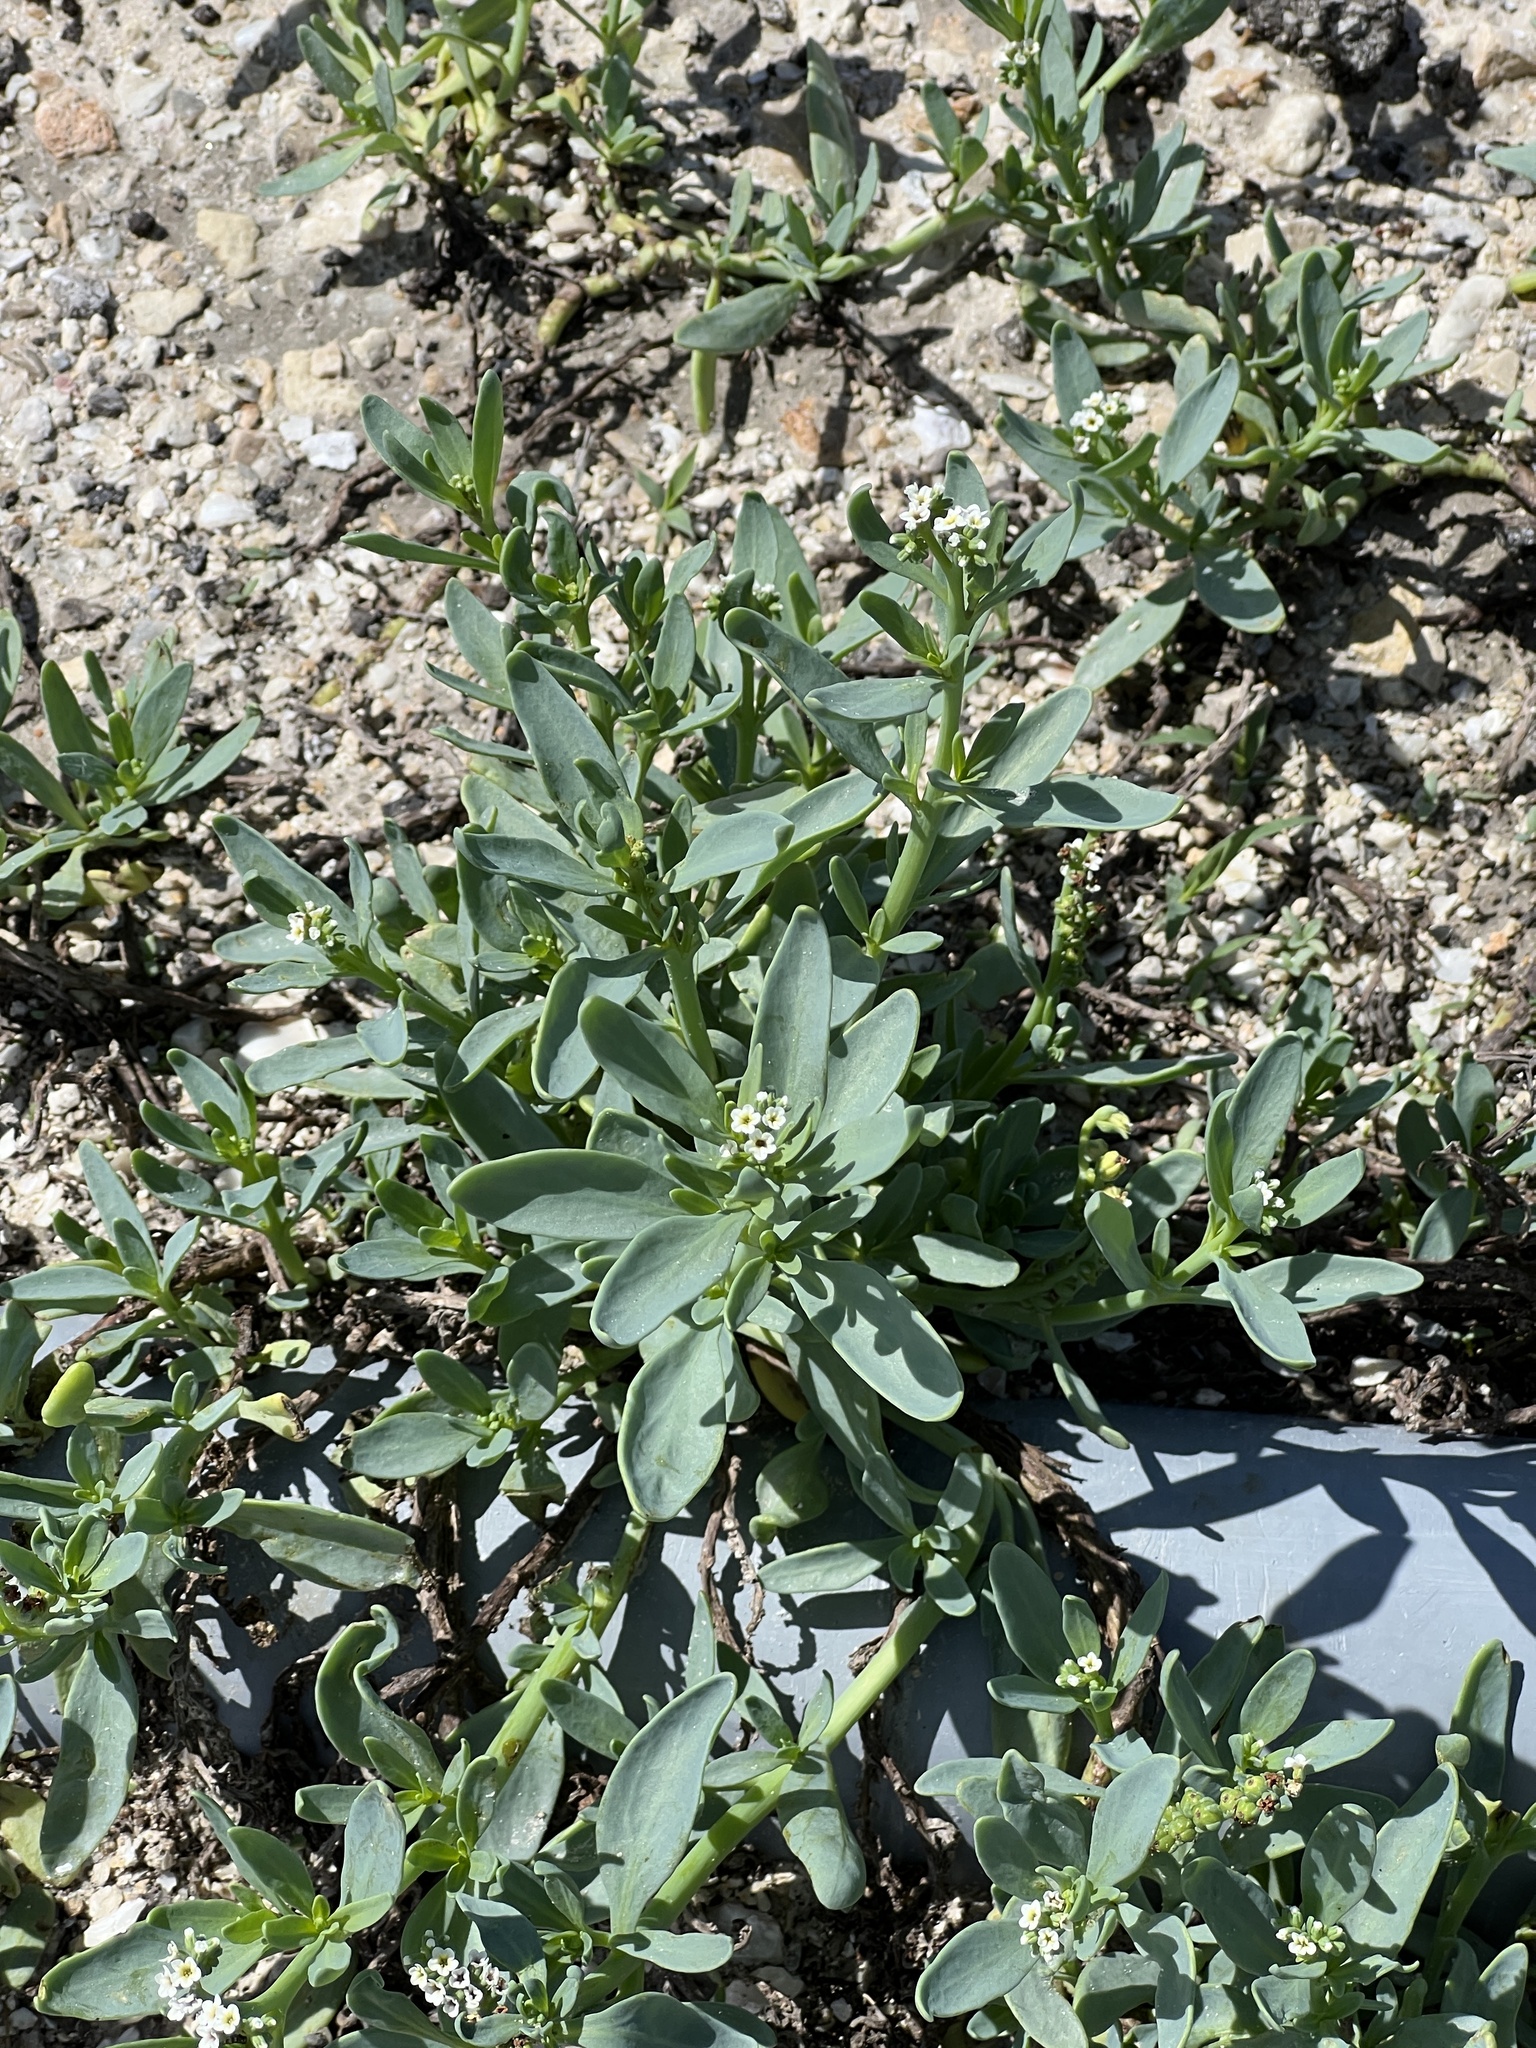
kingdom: Plantae
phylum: Tracheophyta
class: Magnoliopsida
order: Boraginales
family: Heliotropiaceae
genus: Heliotropium
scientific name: Heliotropium curassavicum
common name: Seaside heliotrope
